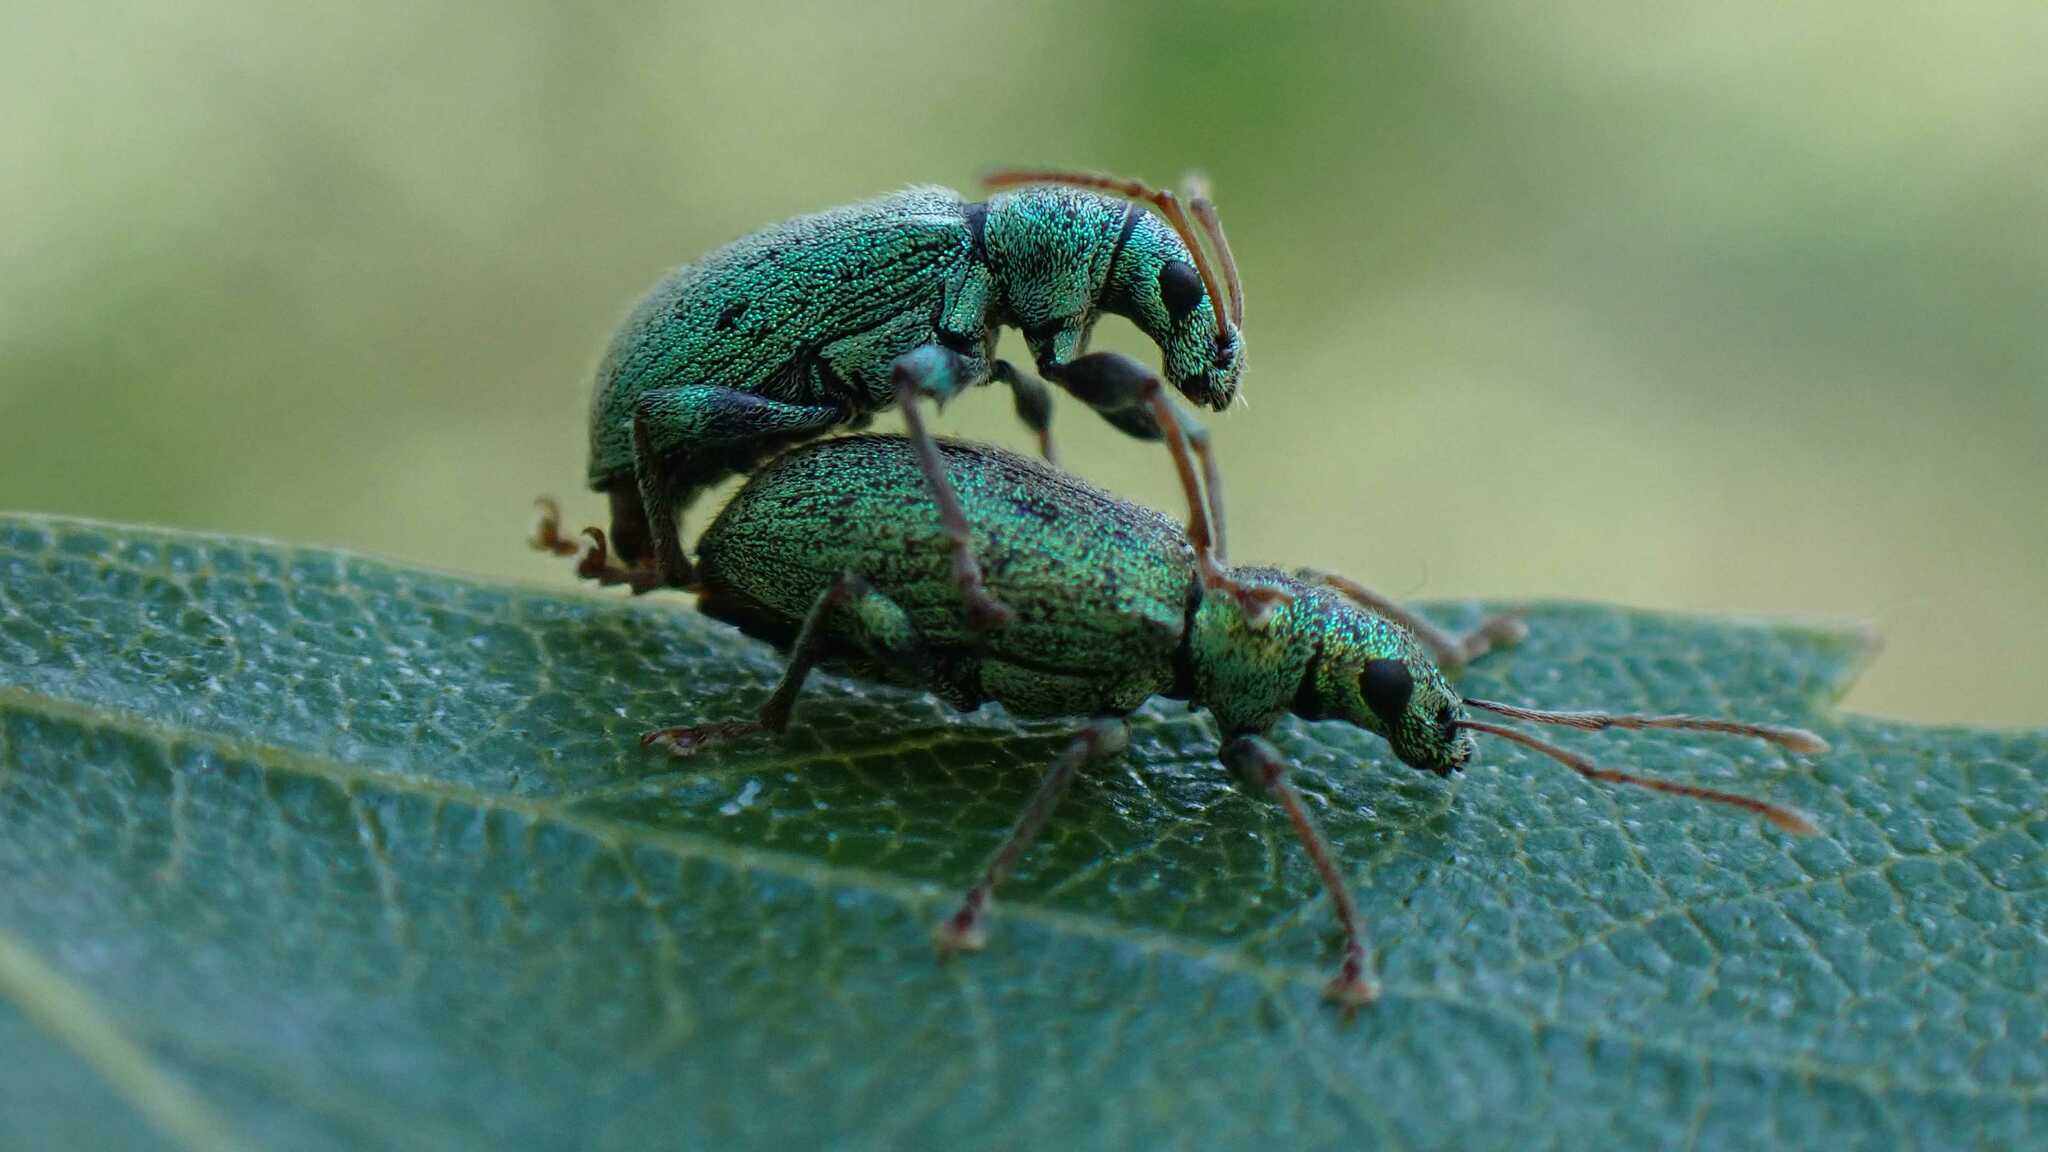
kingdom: Animalia
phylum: Arthropoda
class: Insecta
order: Coleoptera
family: Curculionidae
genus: Phyllobius
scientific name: Phyllobius argentatus
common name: Silver-green leaf weevil
